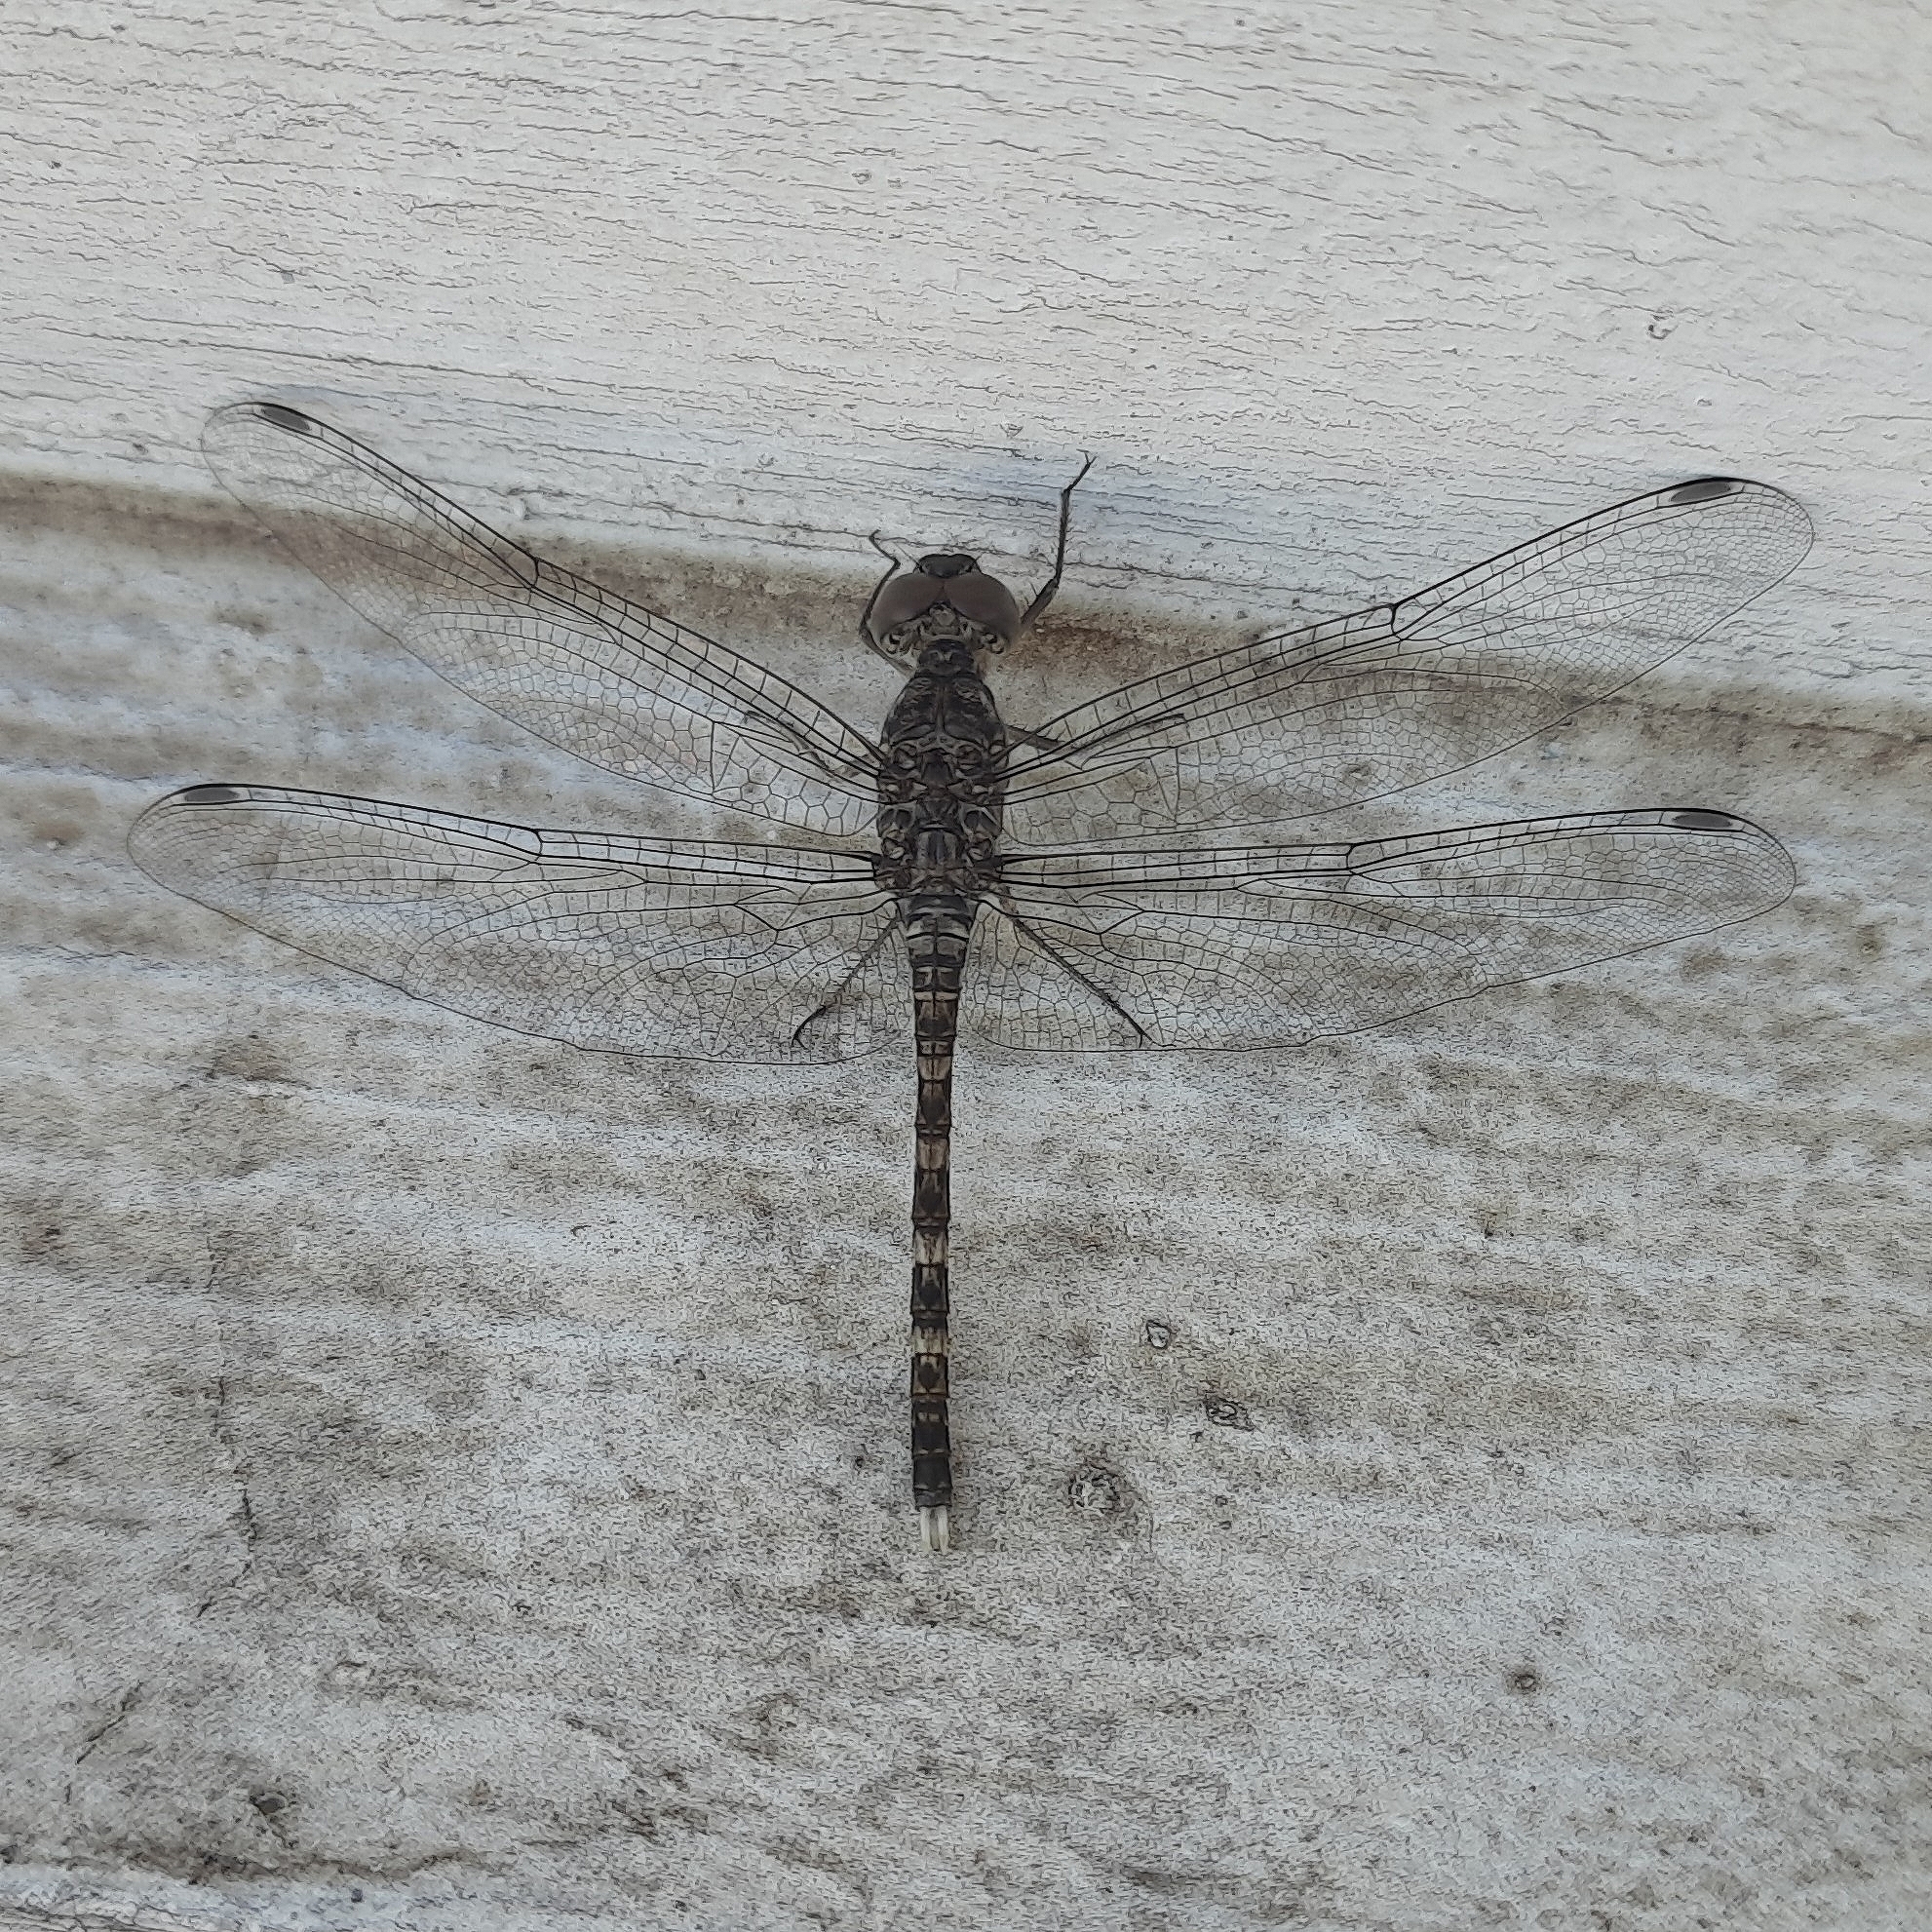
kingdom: Animalia
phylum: Arthropoda
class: Insecta
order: Odonata
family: Libellulidae
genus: Bradinopyga
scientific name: Bradinopyga geminata
